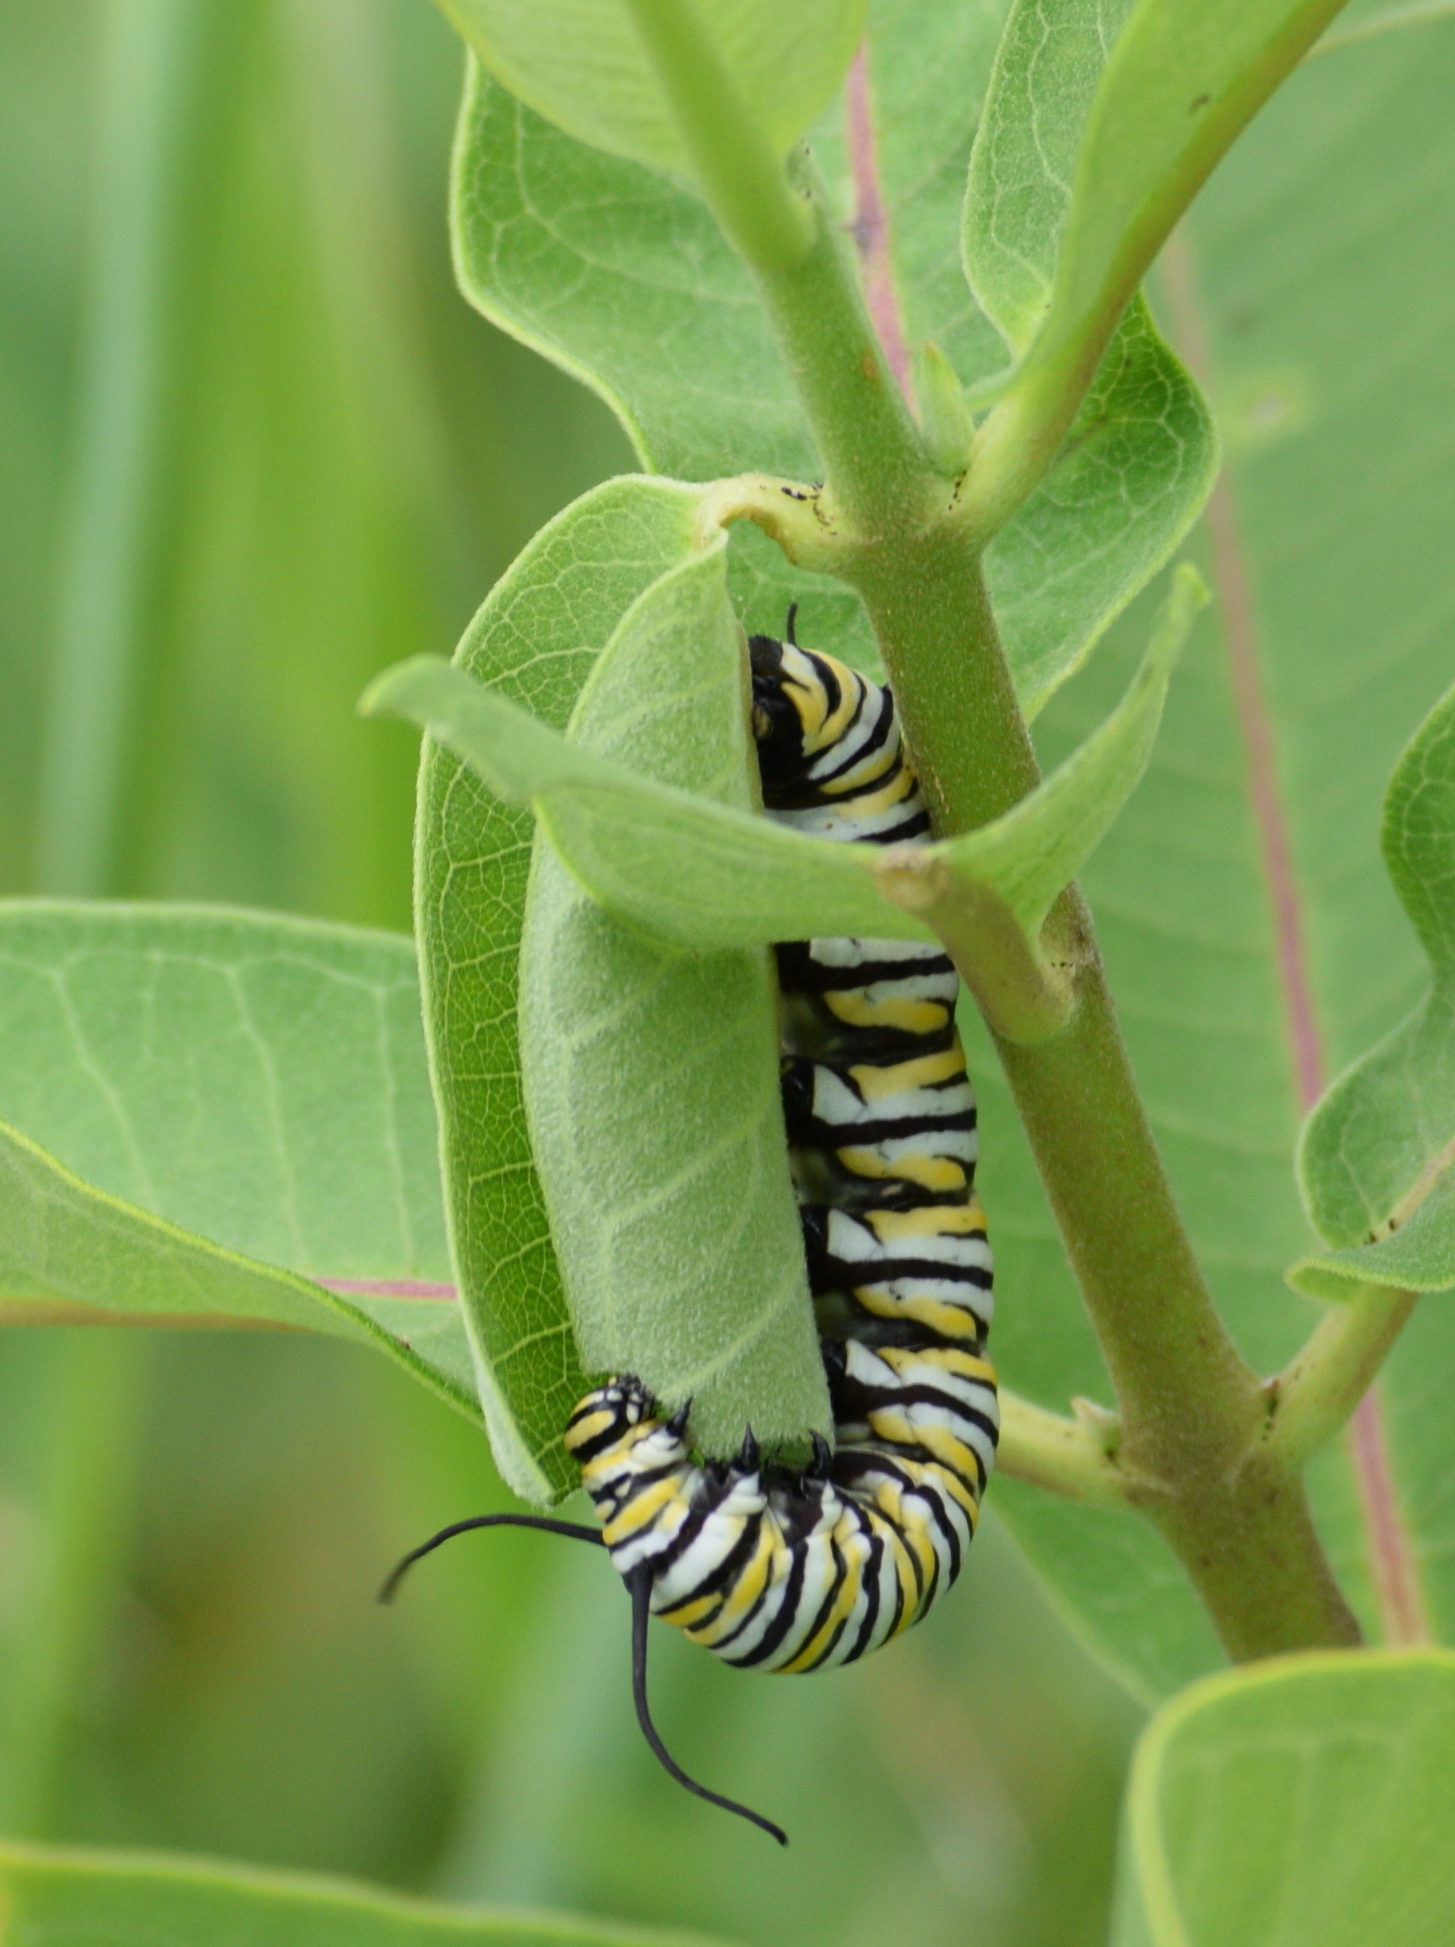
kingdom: Animalia
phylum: Arthropoda
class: Insecta
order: Lepidoptera
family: Nymphalidae
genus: Danaus
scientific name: Danaus plexippus
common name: Monarch
